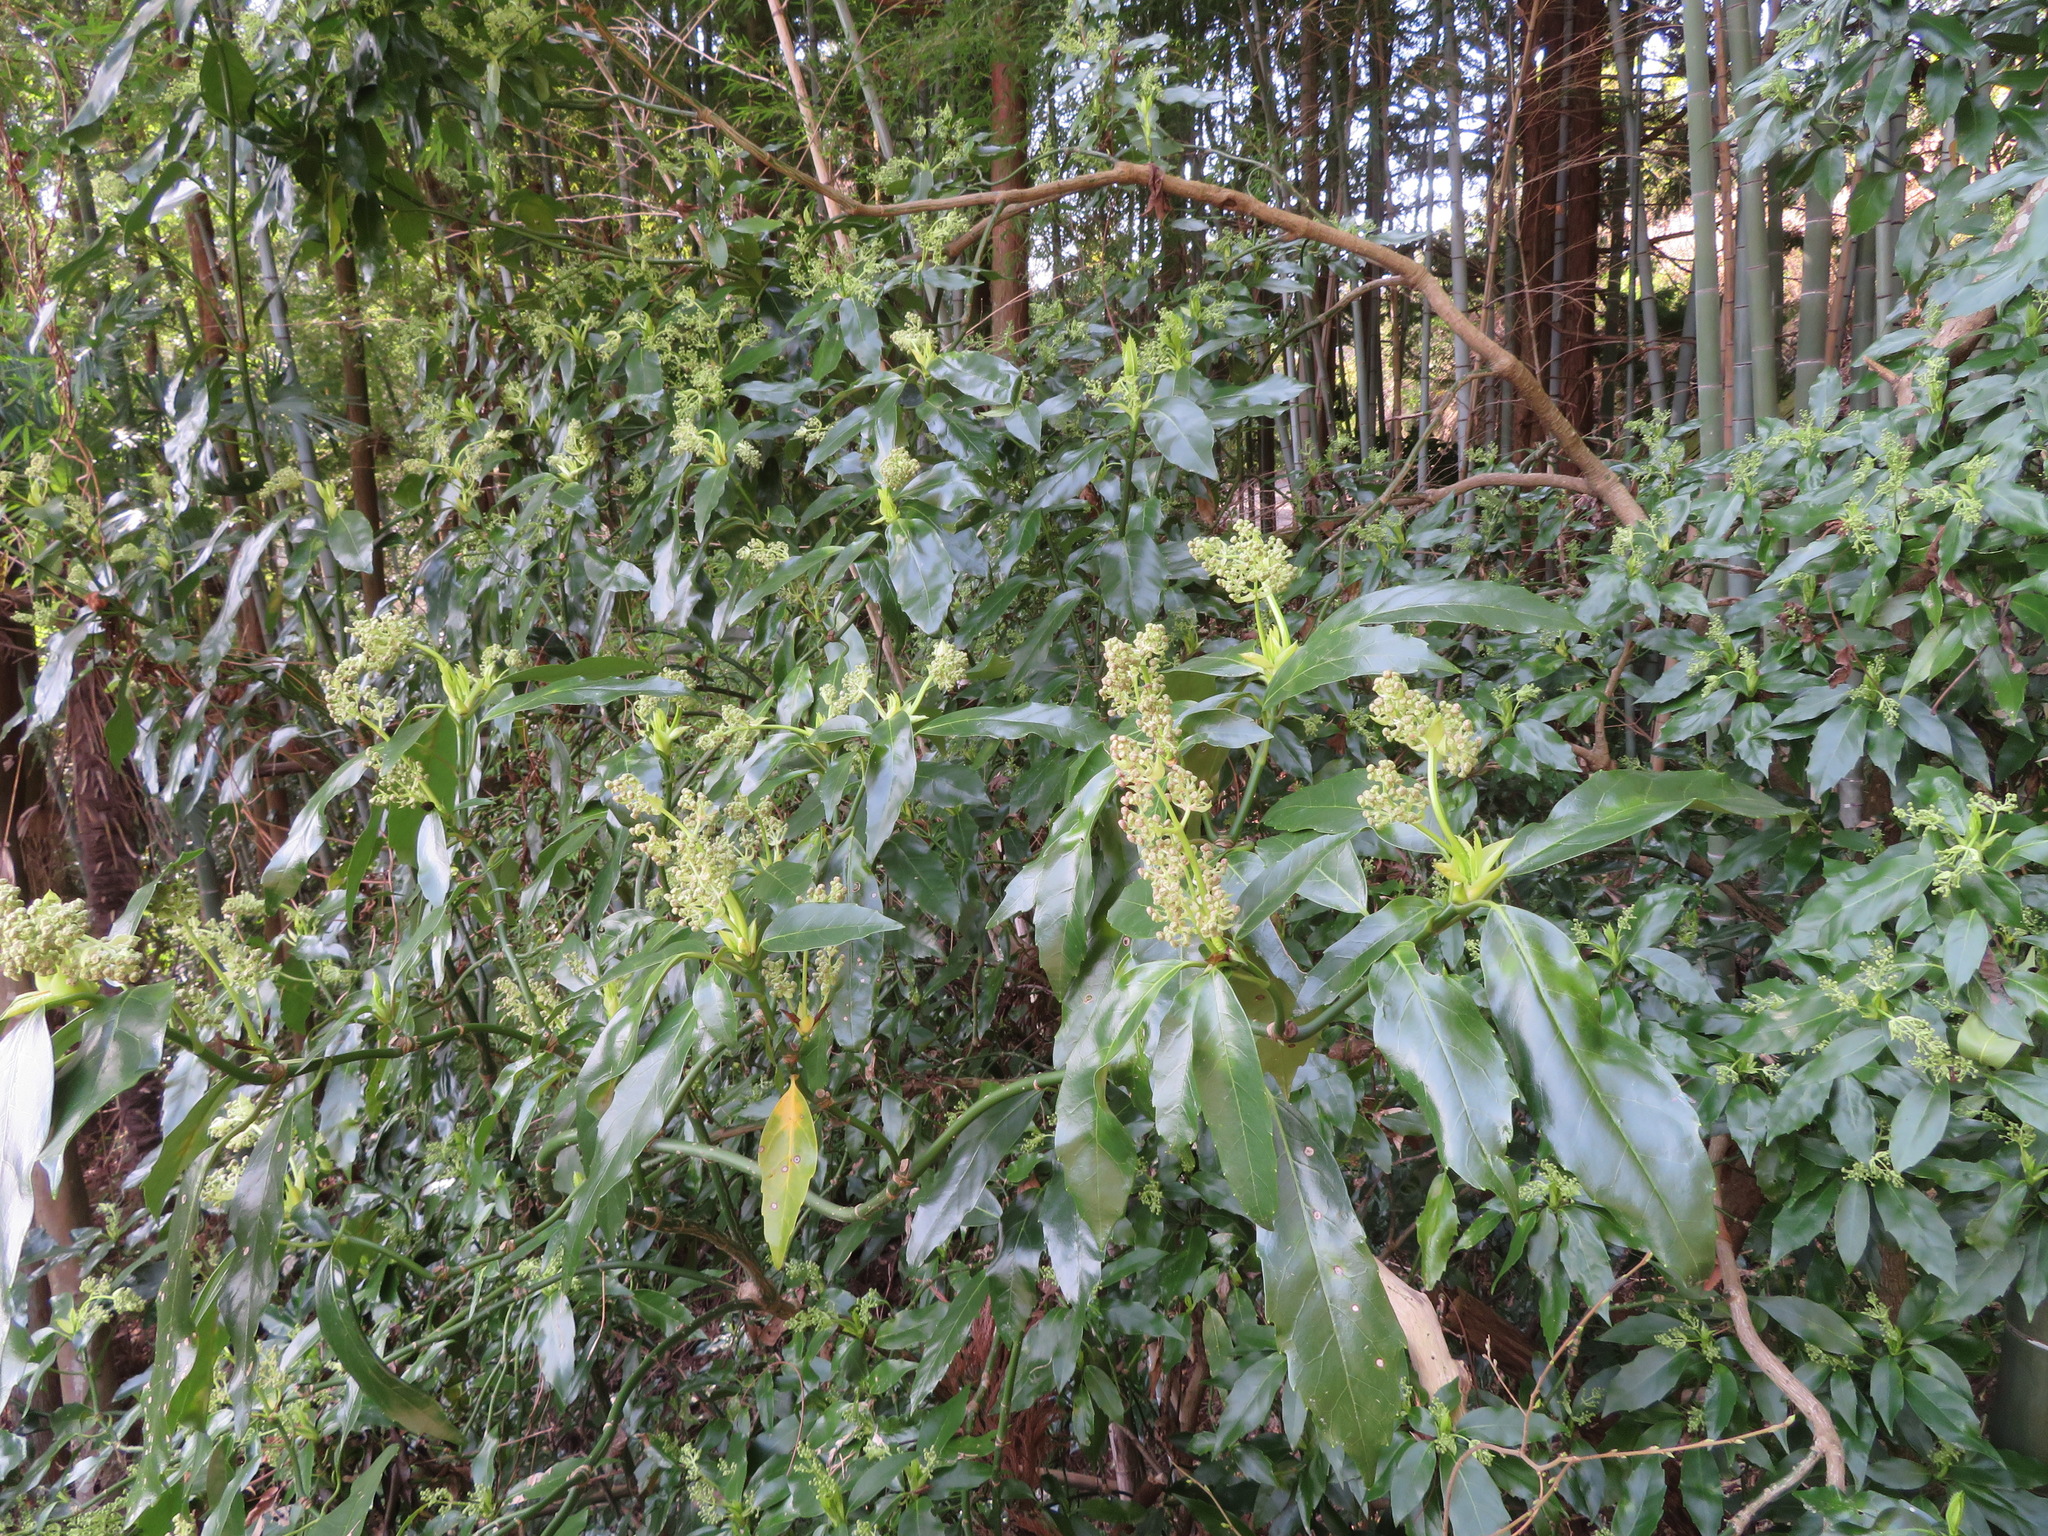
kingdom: Plantae
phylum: Tracheophyta
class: Magnoliopsida
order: Garryales
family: Garryaceae
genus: Aucuba
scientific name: Aucuba japonica
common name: Spotted-laurel
